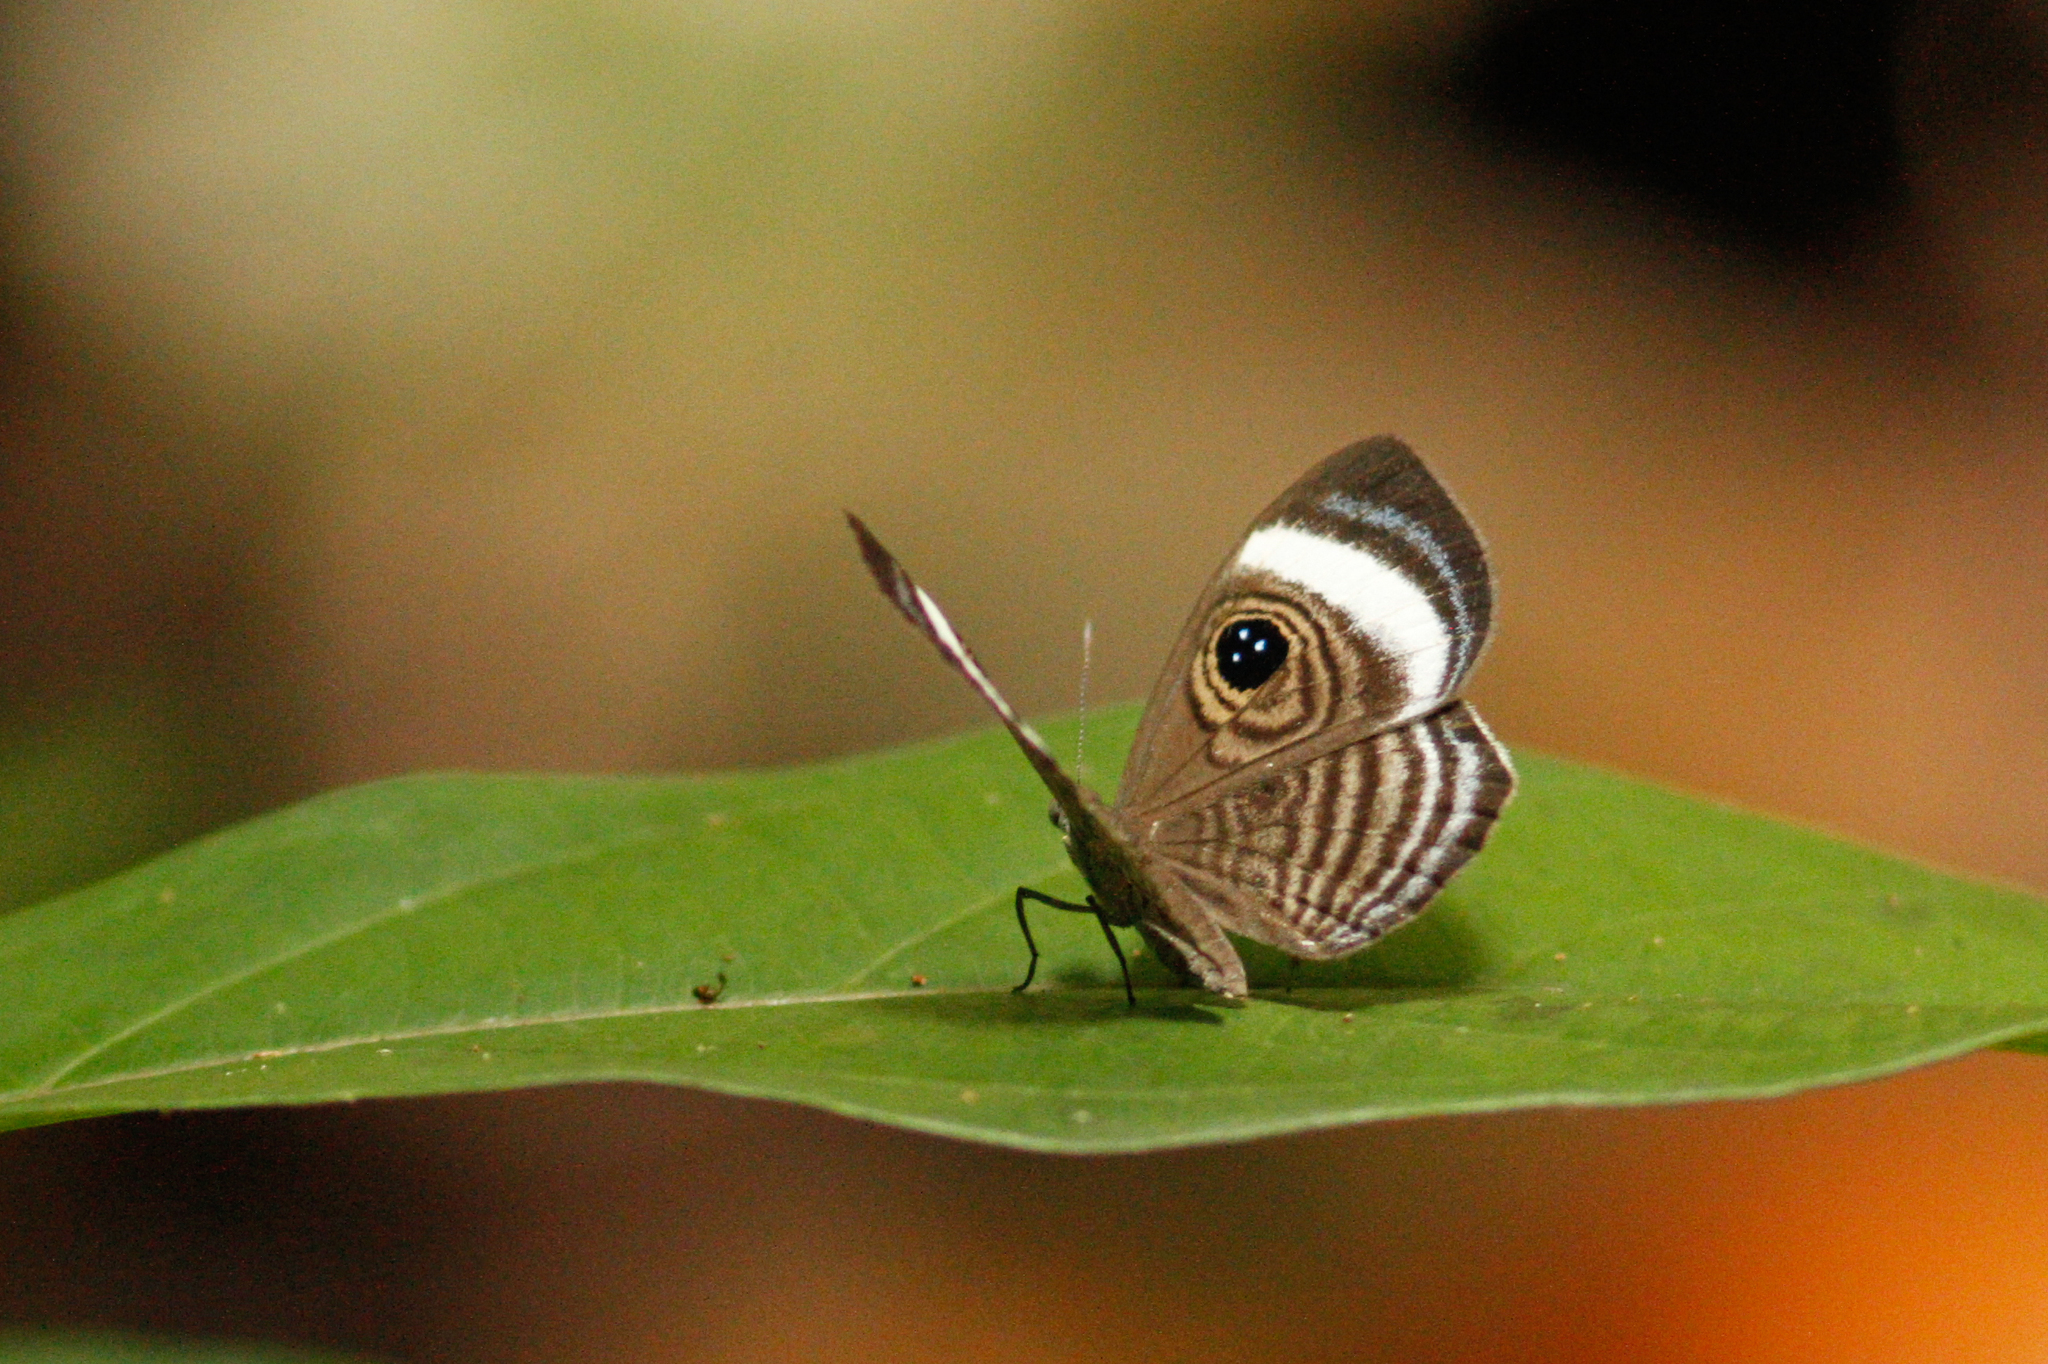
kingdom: Animalia
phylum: Arthropoda
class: Insecta
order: Lepidoptera
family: Riodinidae
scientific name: Riodinidae
